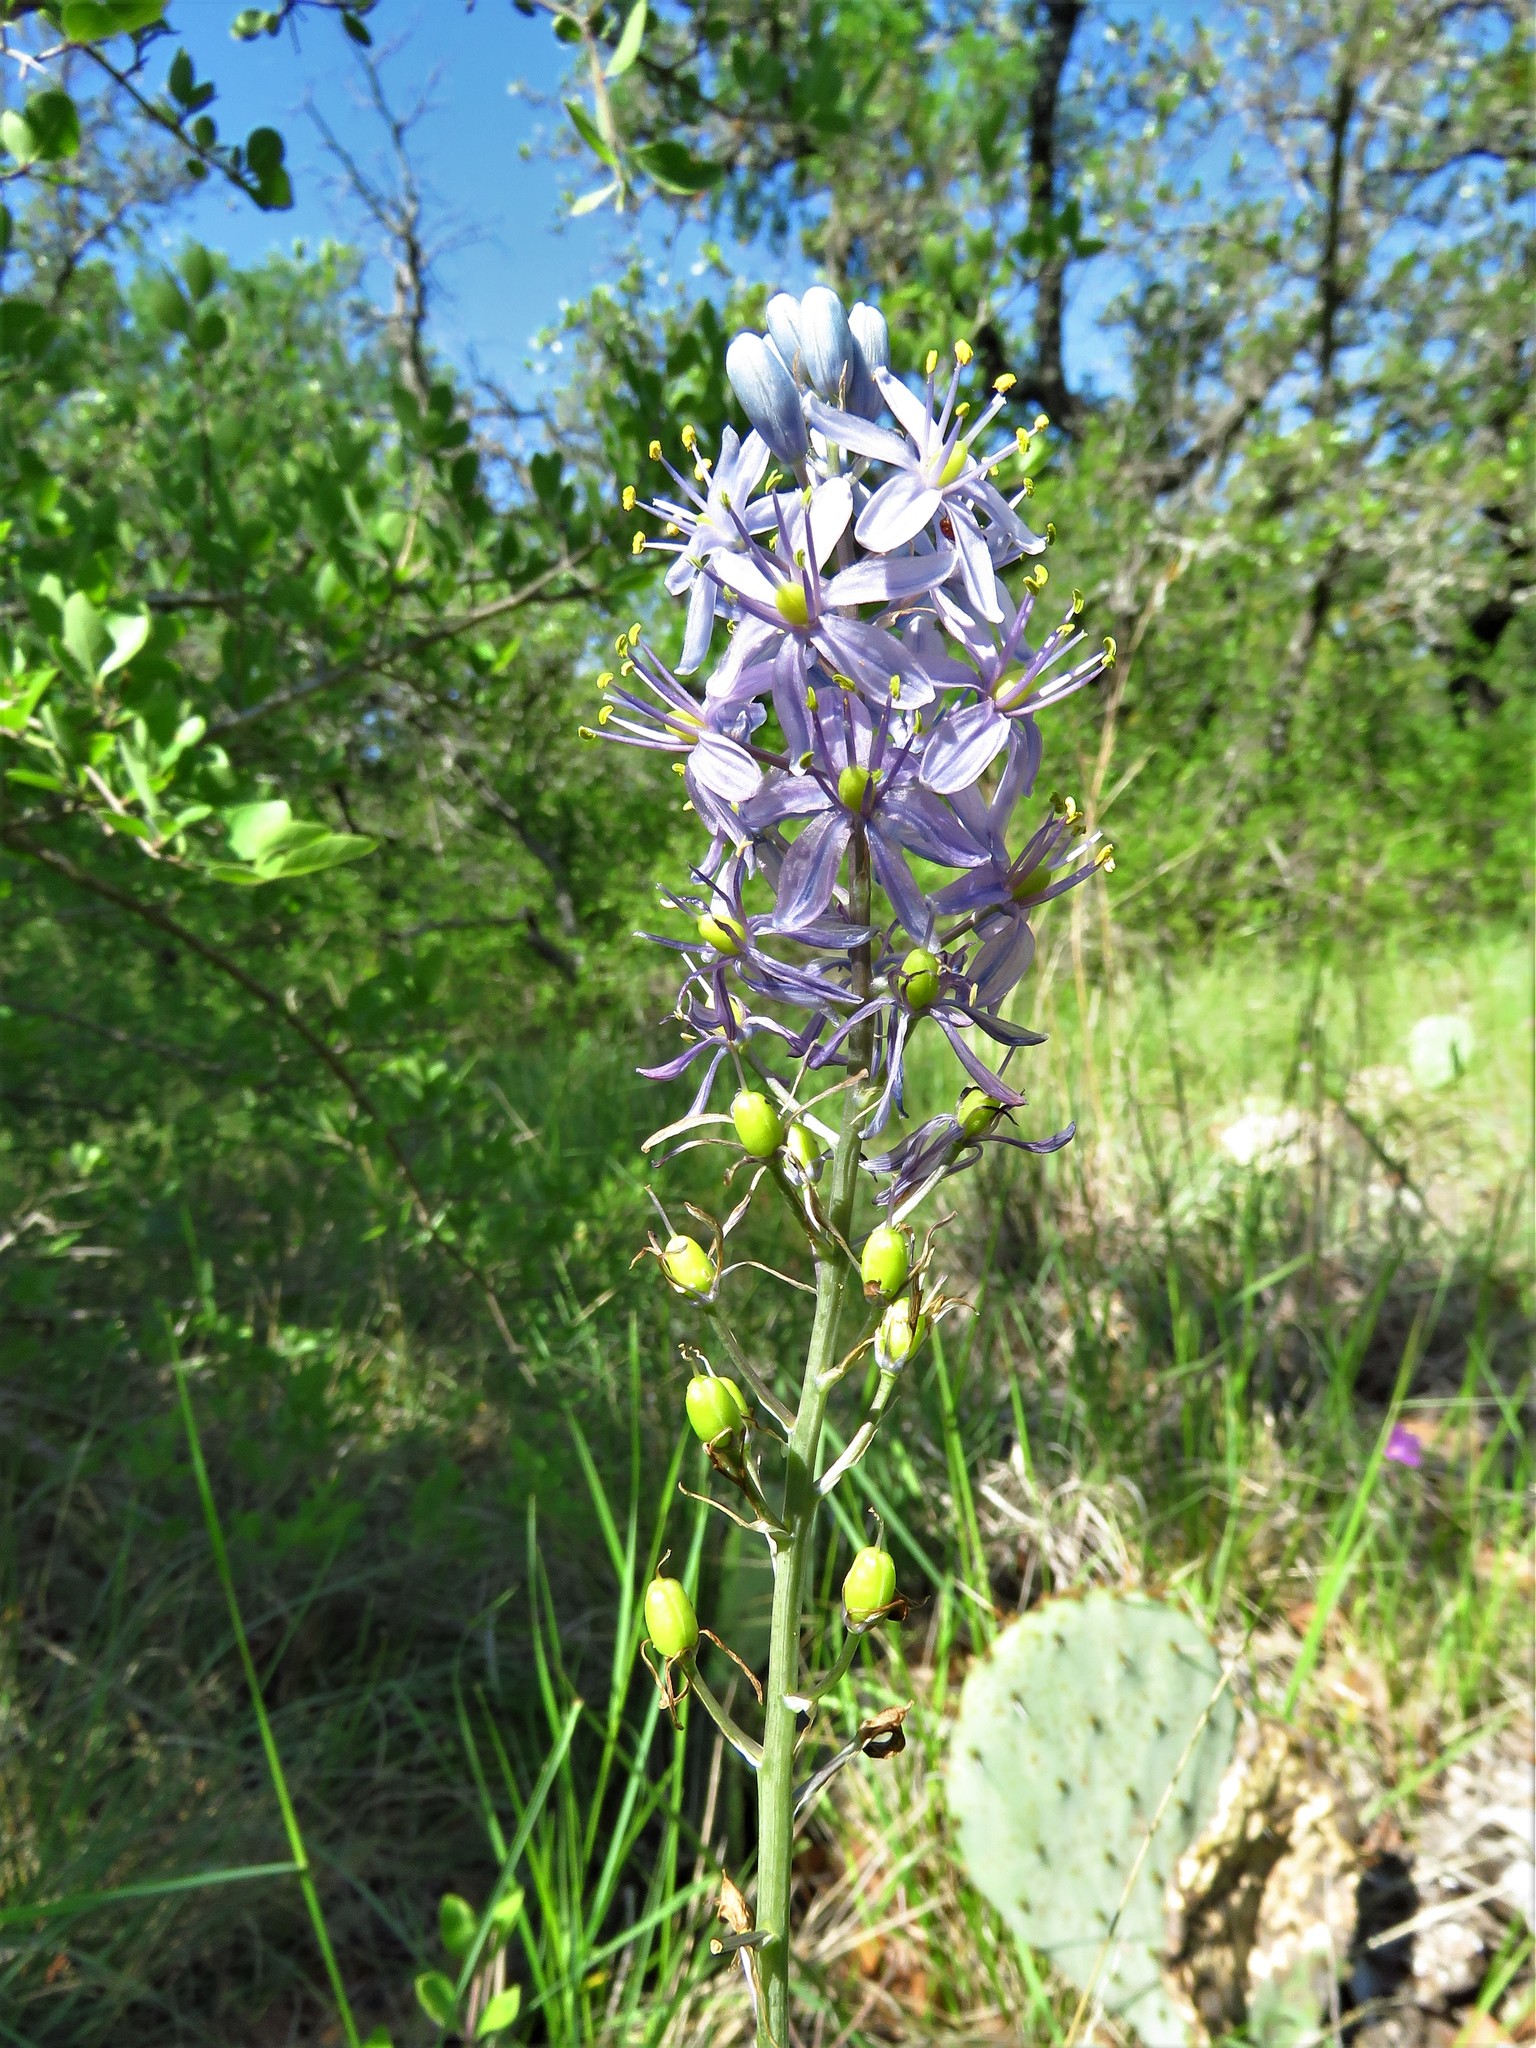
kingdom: Plantae
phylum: Tracheophyta
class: Liliopsida
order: Asparagales
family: Asparagaceae
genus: Camassia
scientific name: Camassia scilloides
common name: Wild hyacinth
